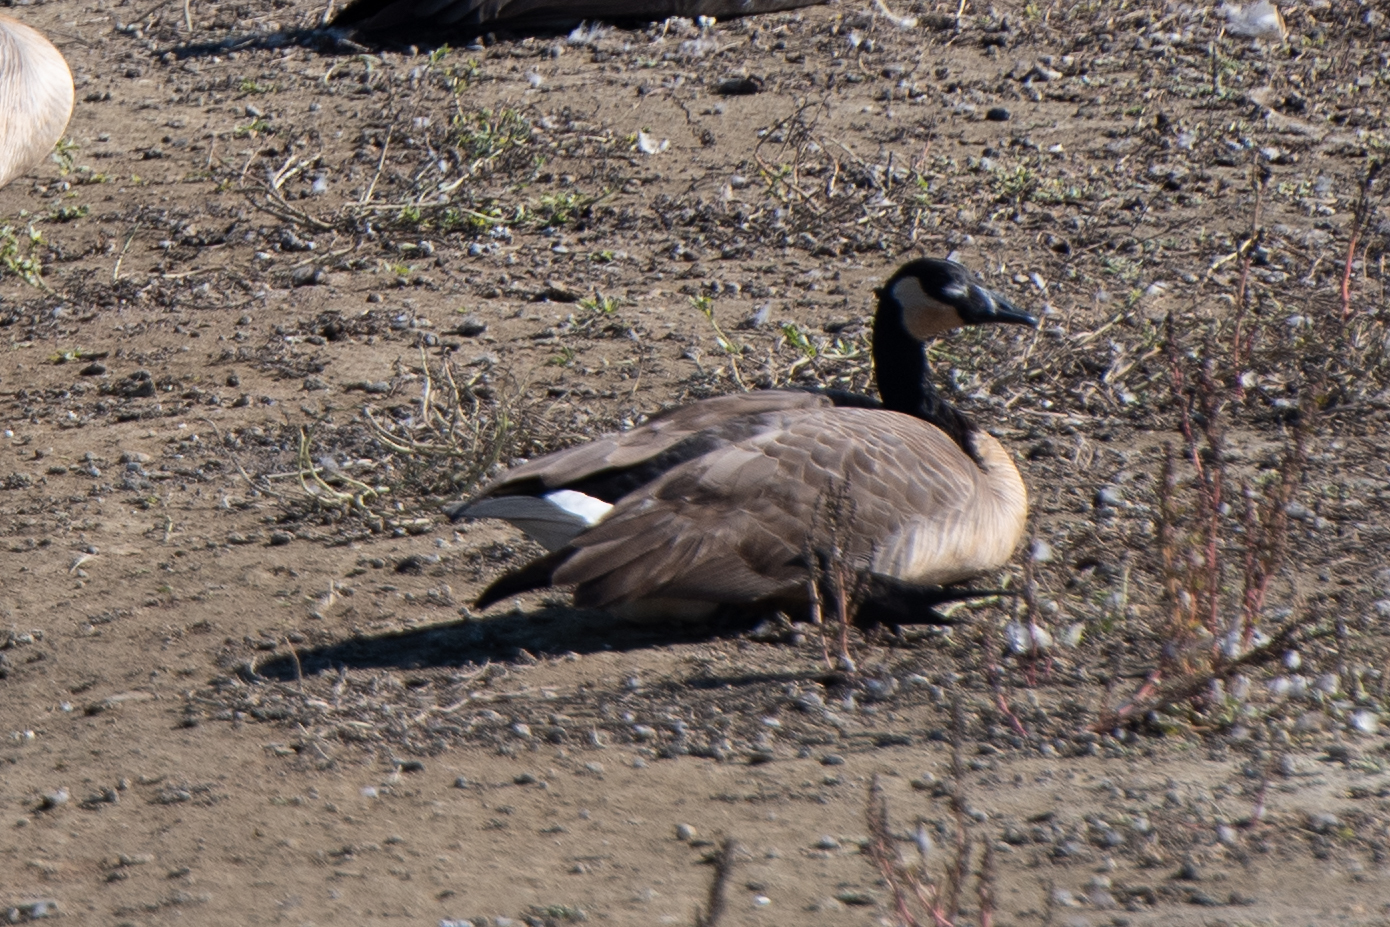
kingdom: Animalia
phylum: Chordata
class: Aves
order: Anseriformes
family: Anatidae
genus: Branta
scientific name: Branta canadensis
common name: Canada goose
